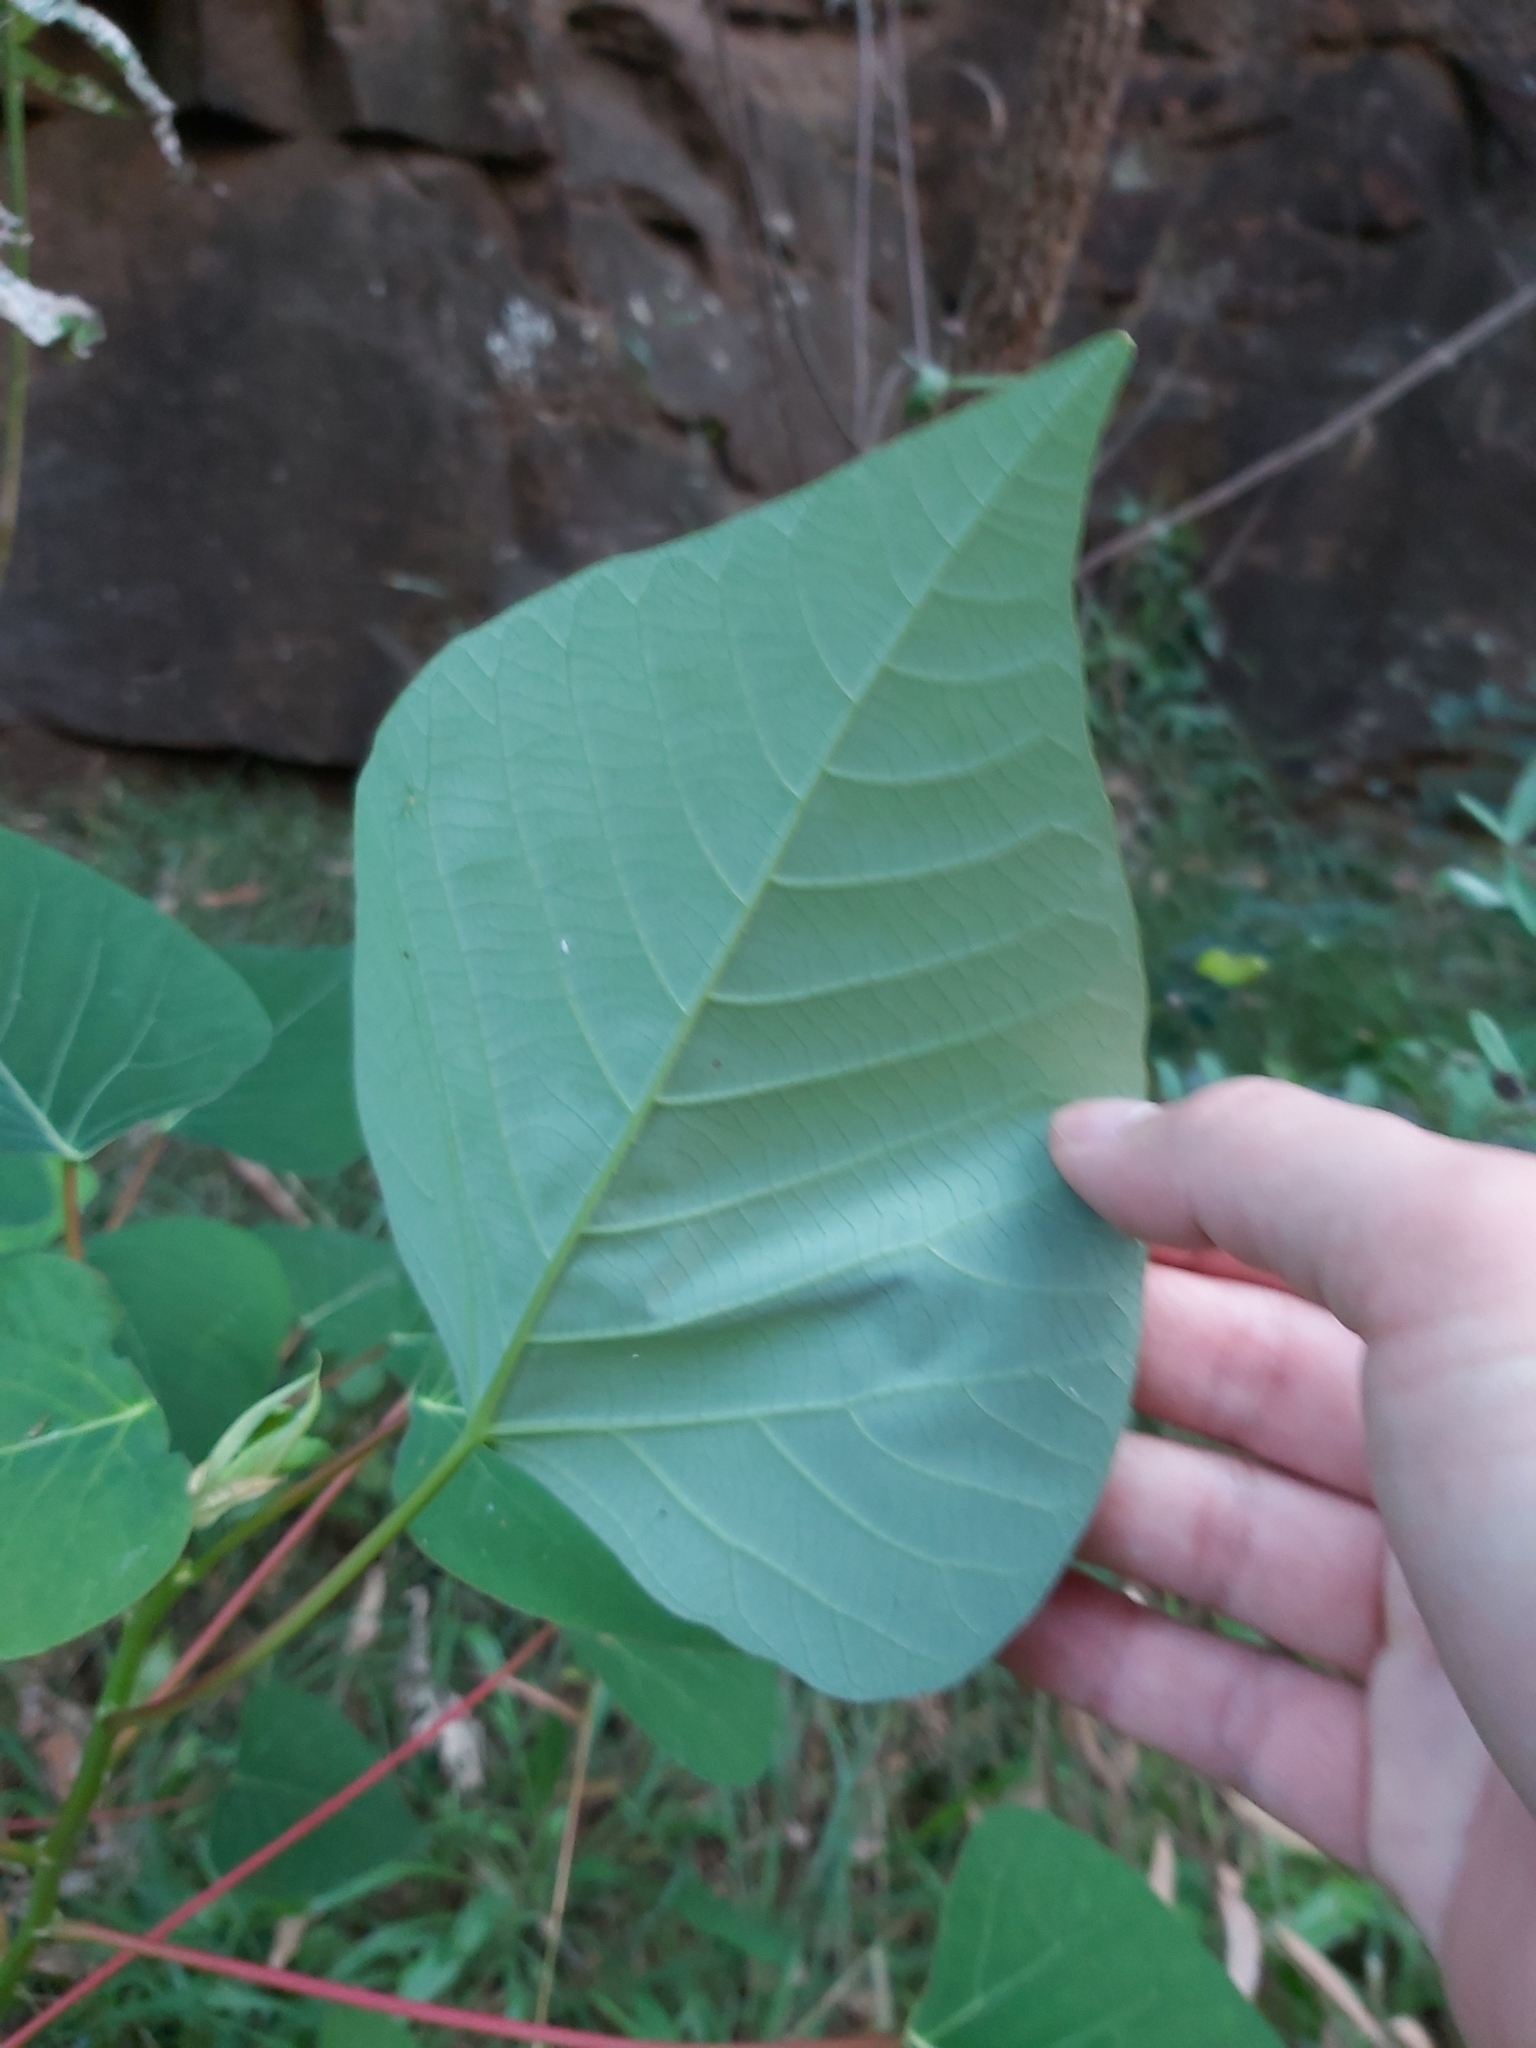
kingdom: Plantae
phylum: Tracheophyta
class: Magnoliopsida
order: Malpighiales
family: Euphorbiaceae
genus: Homalanthus
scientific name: Homalanthus populifolius
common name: Queensland poplar
